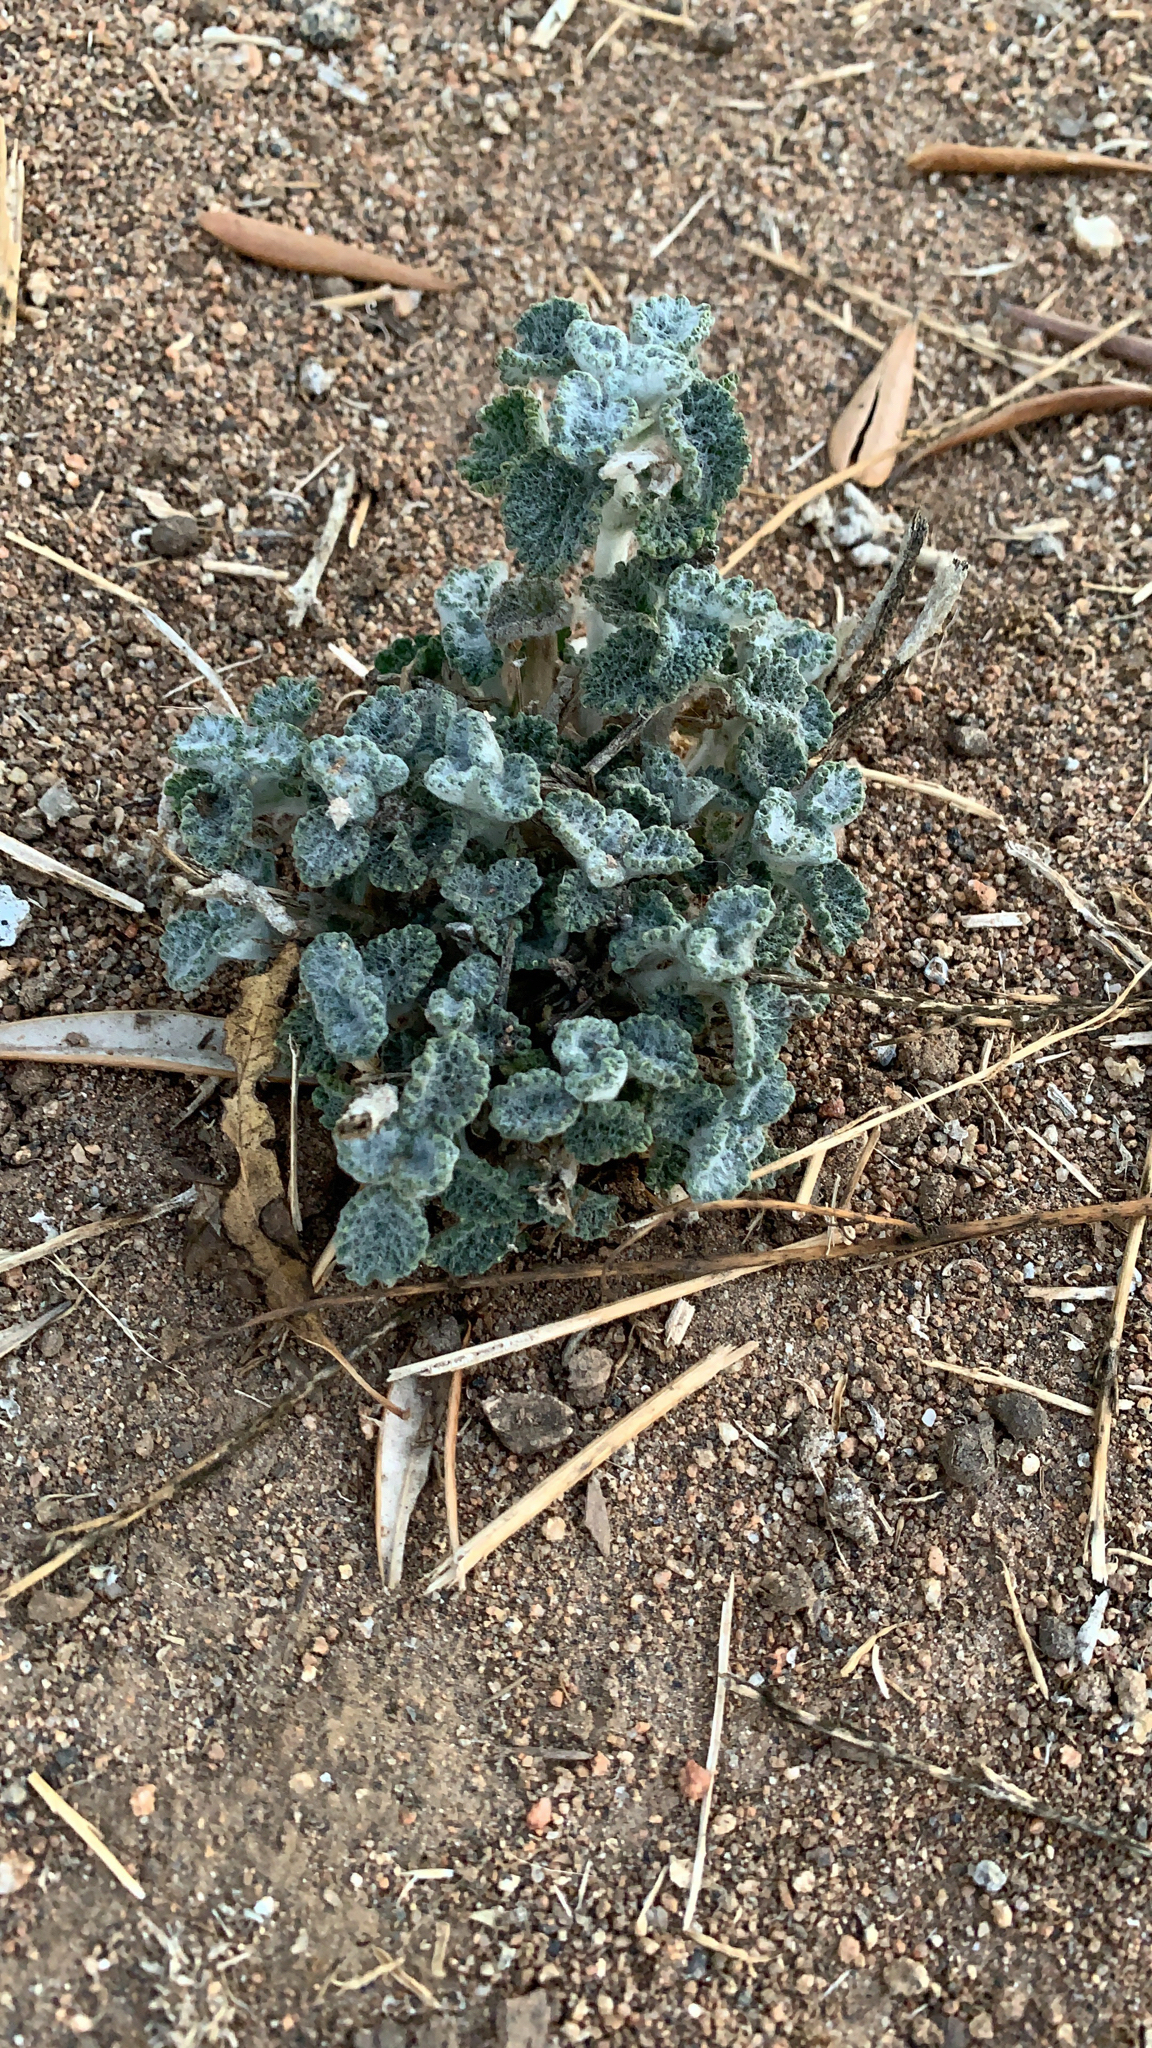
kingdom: Plantae
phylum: Tracheophyta
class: Magnoliopsida
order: Lamiales
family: Lamiaceae
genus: Marrubium
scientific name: Marrubium vulgare
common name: Horehound
